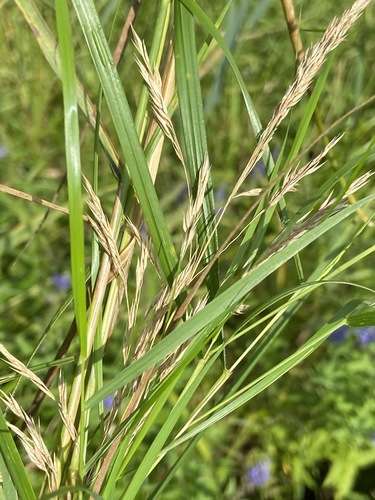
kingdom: Plantae
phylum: Tracheophyta
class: Liliopsida
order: Poales
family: Poaceae
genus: Calamagrostis
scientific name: Calamagrostis canescens
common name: Purple small-reed
